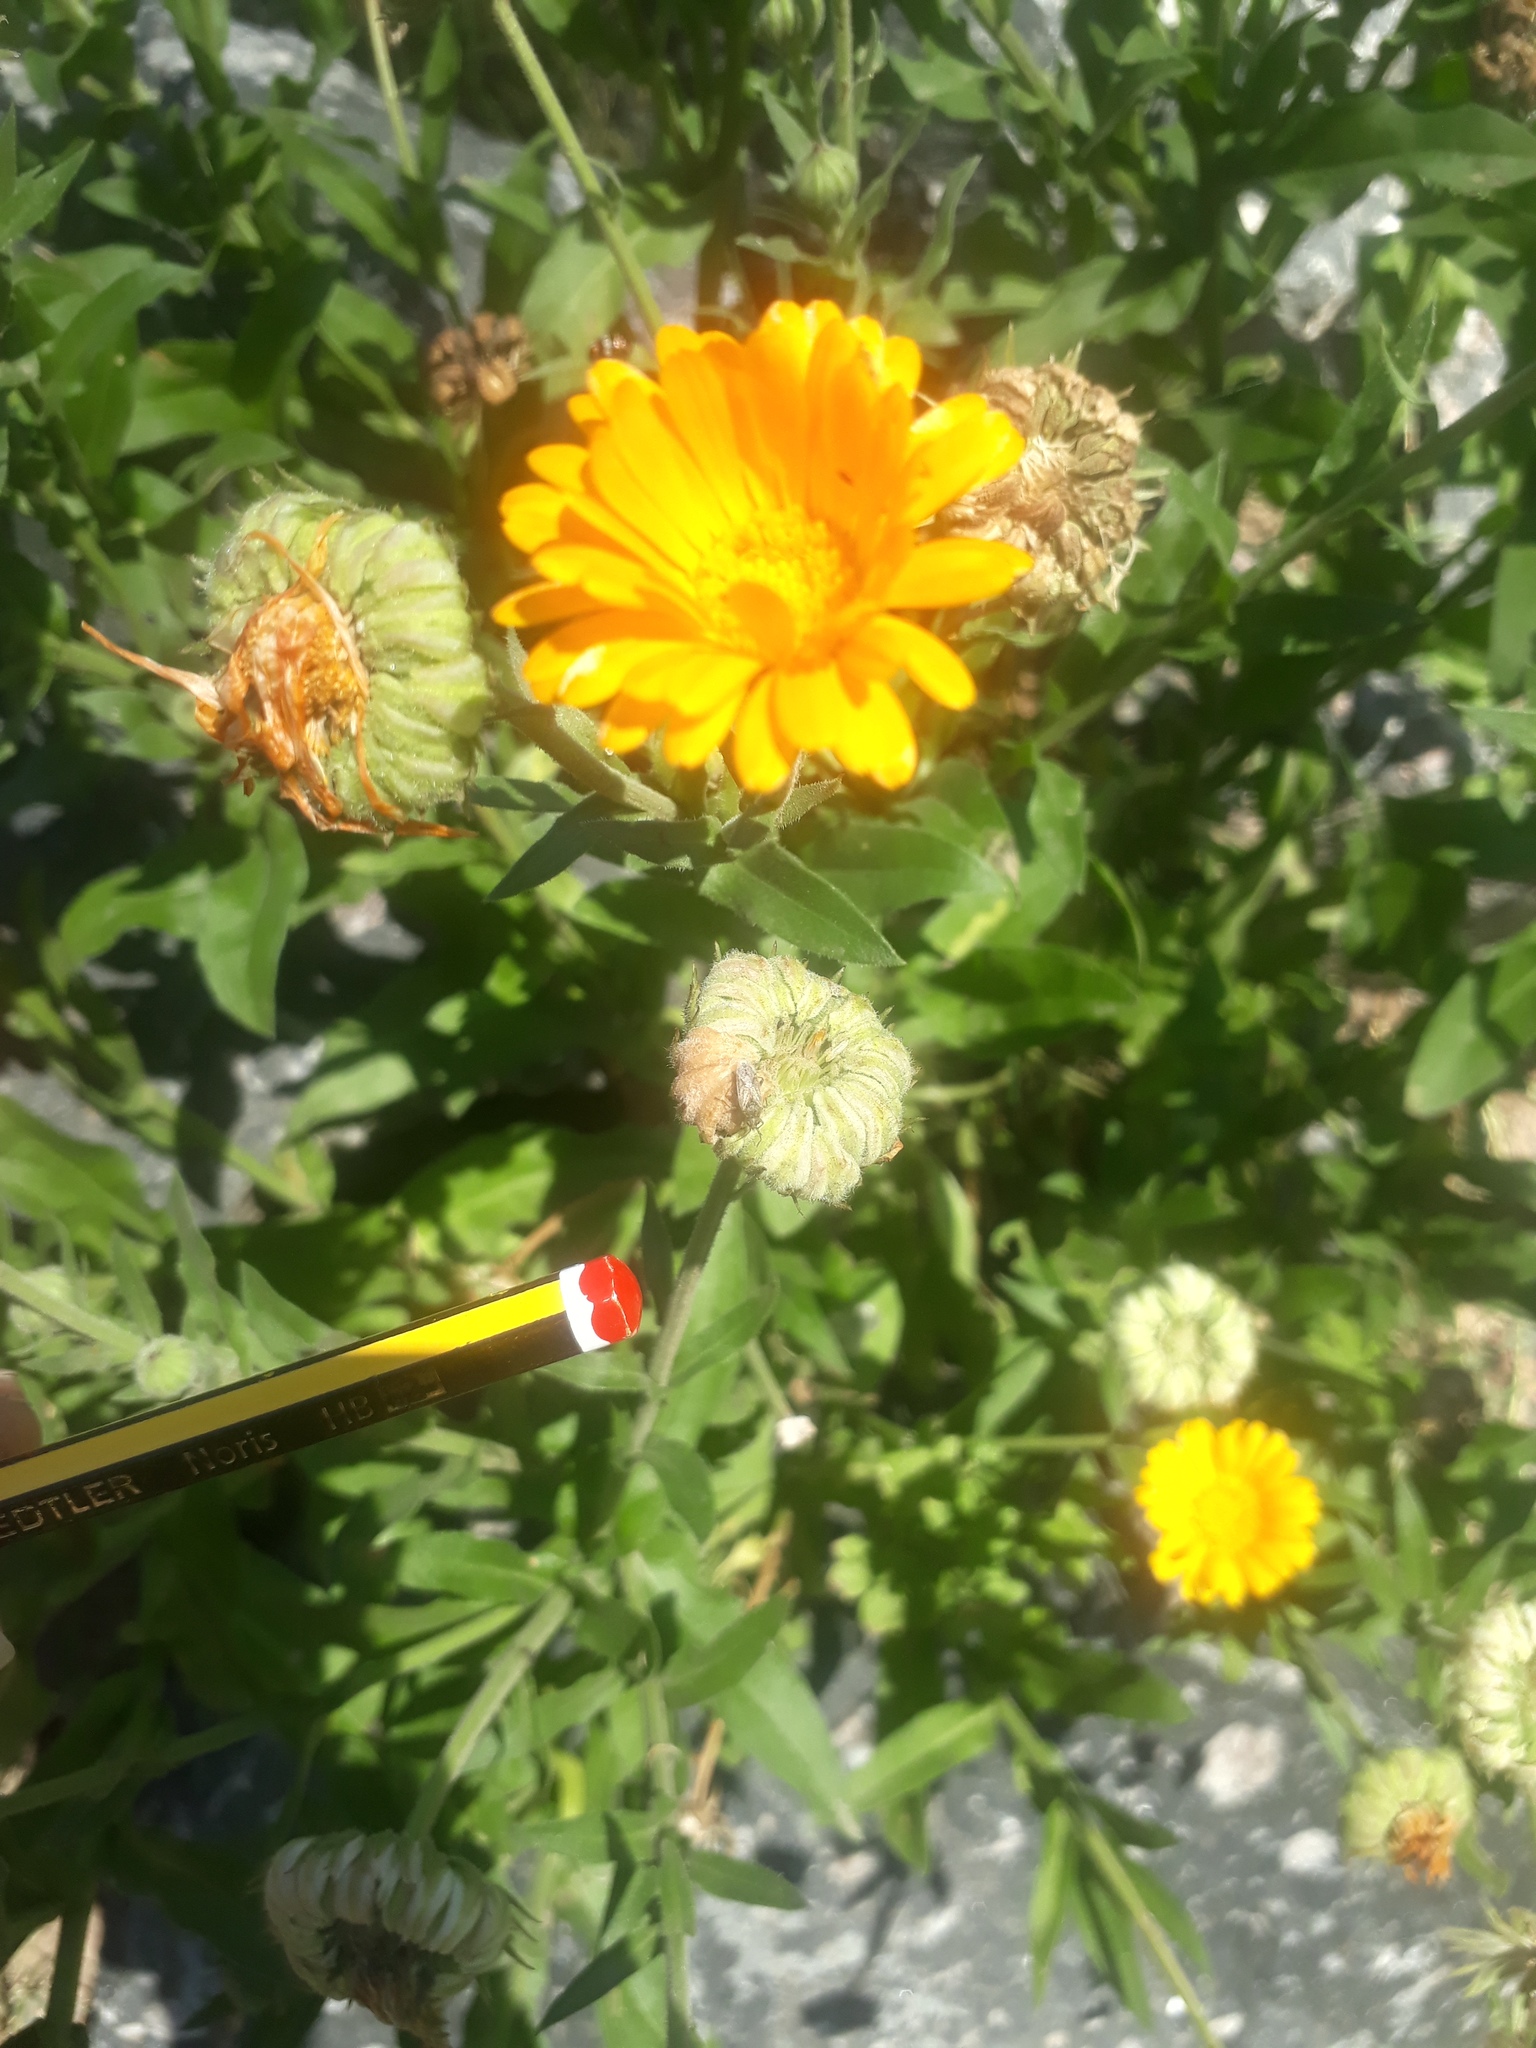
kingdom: Plantae
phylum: Tracheophyta
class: Magnoliopsida
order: Asterales
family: Asteraceae
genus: Calendula
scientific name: Calendula officinalis
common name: Pot marigold
